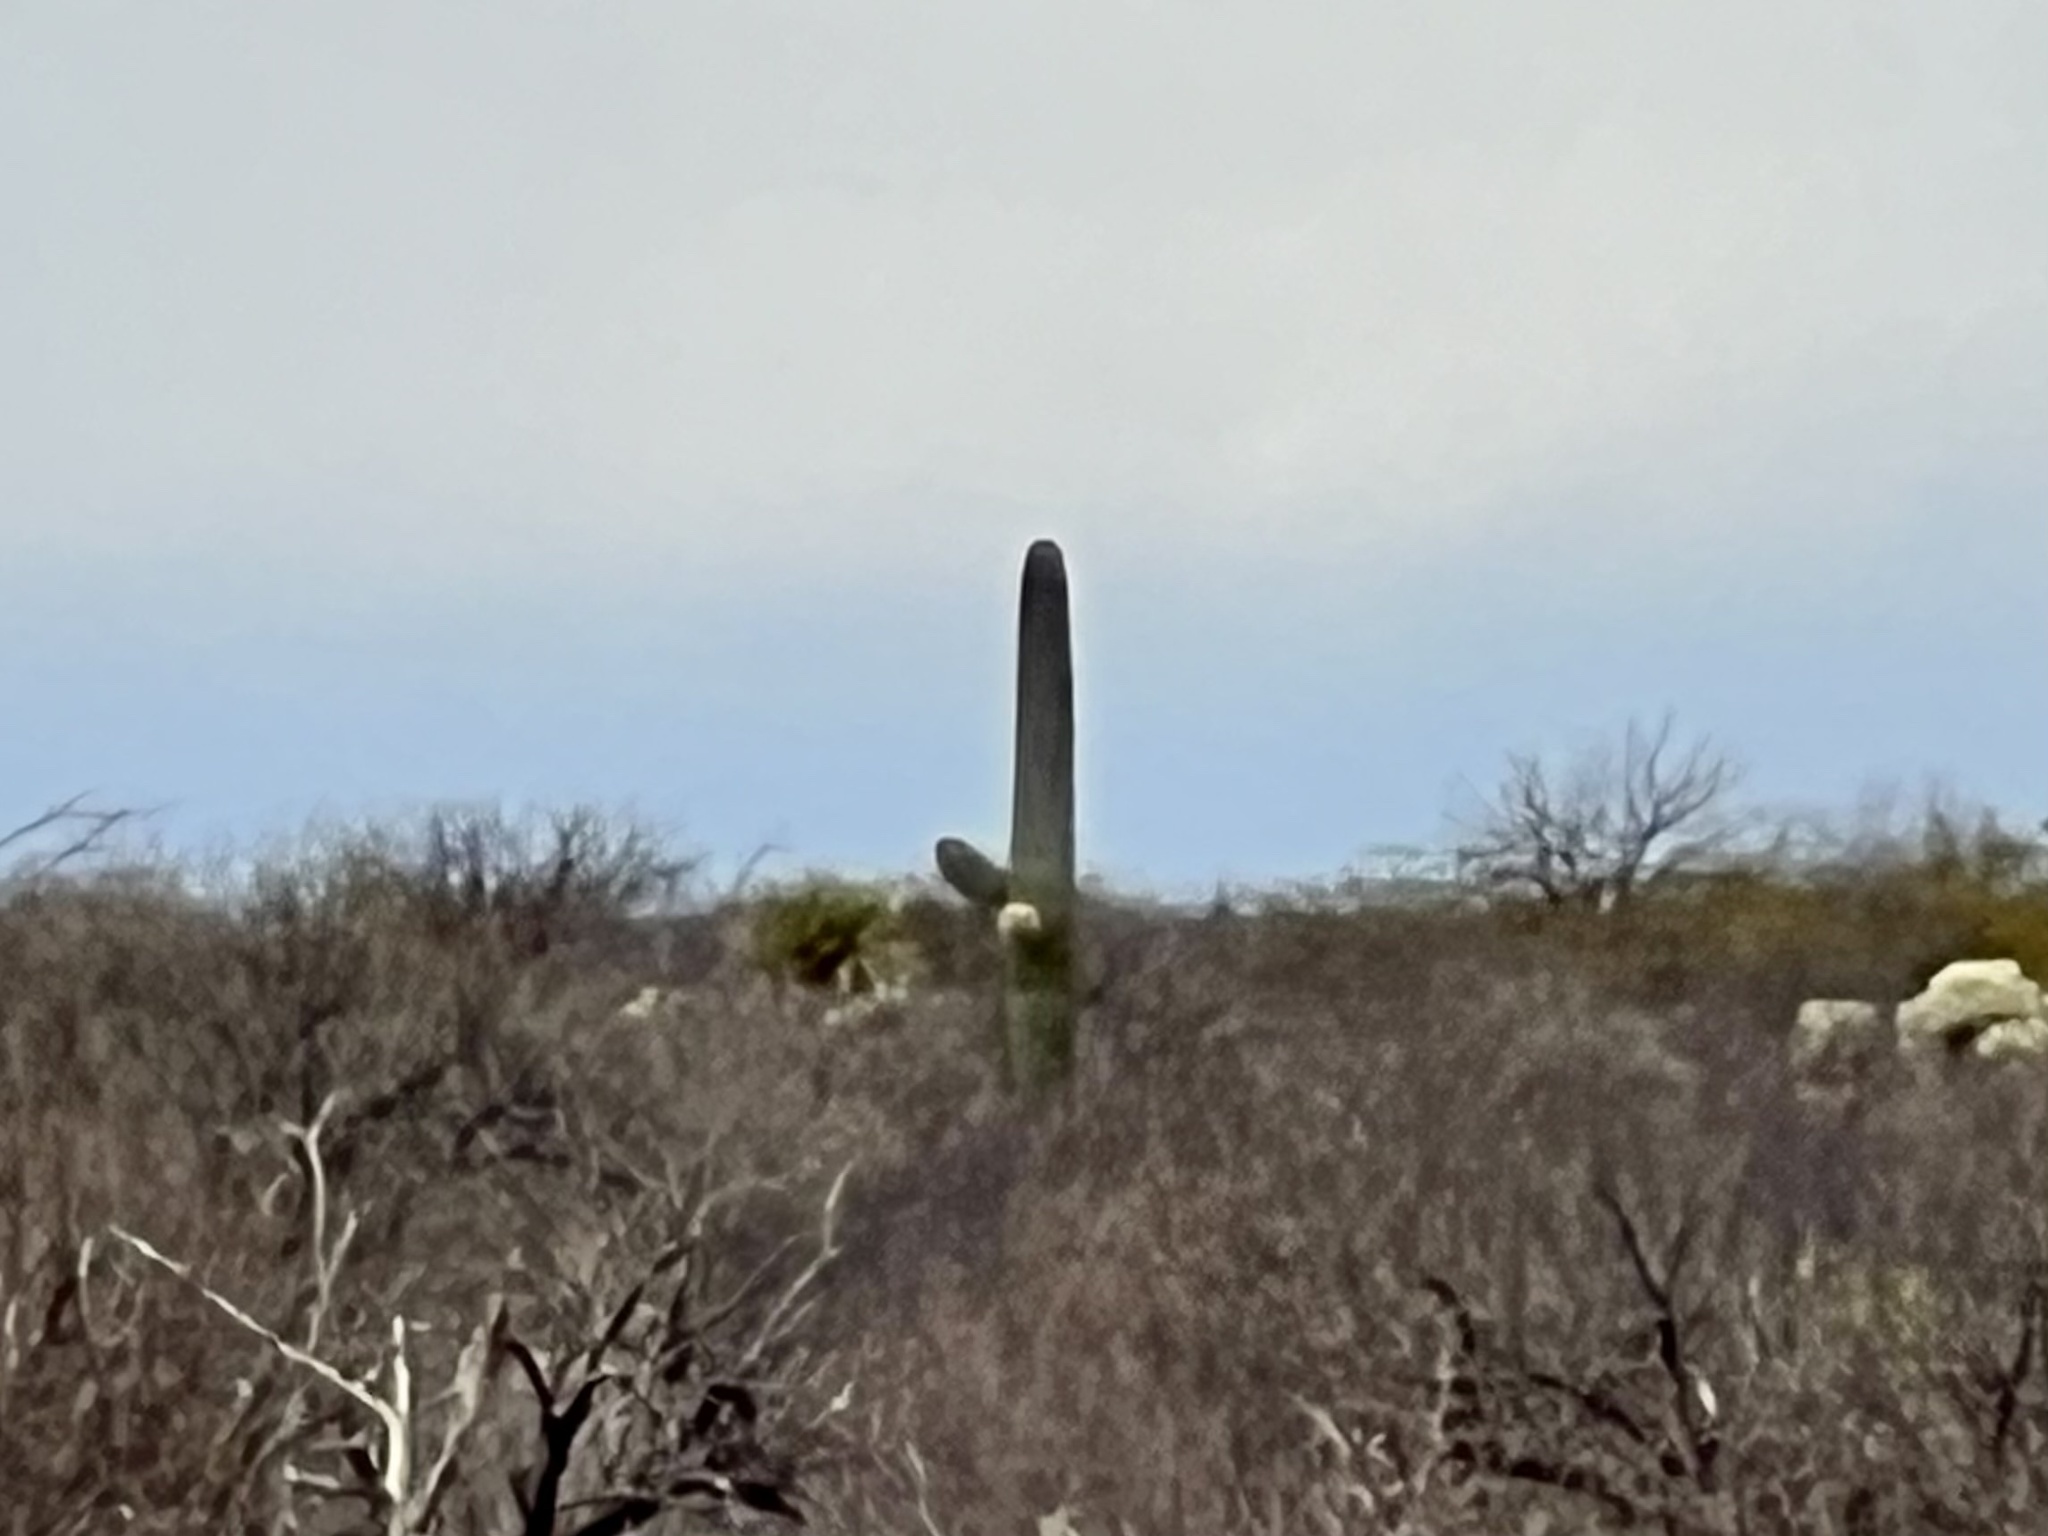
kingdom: Plantae
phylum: Tracheophyta
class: Magnoliopsida
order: Caryophyllales
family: Cactaceae
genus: Carnegiea
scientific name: Carnegiea gigantea
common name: Saguaro
